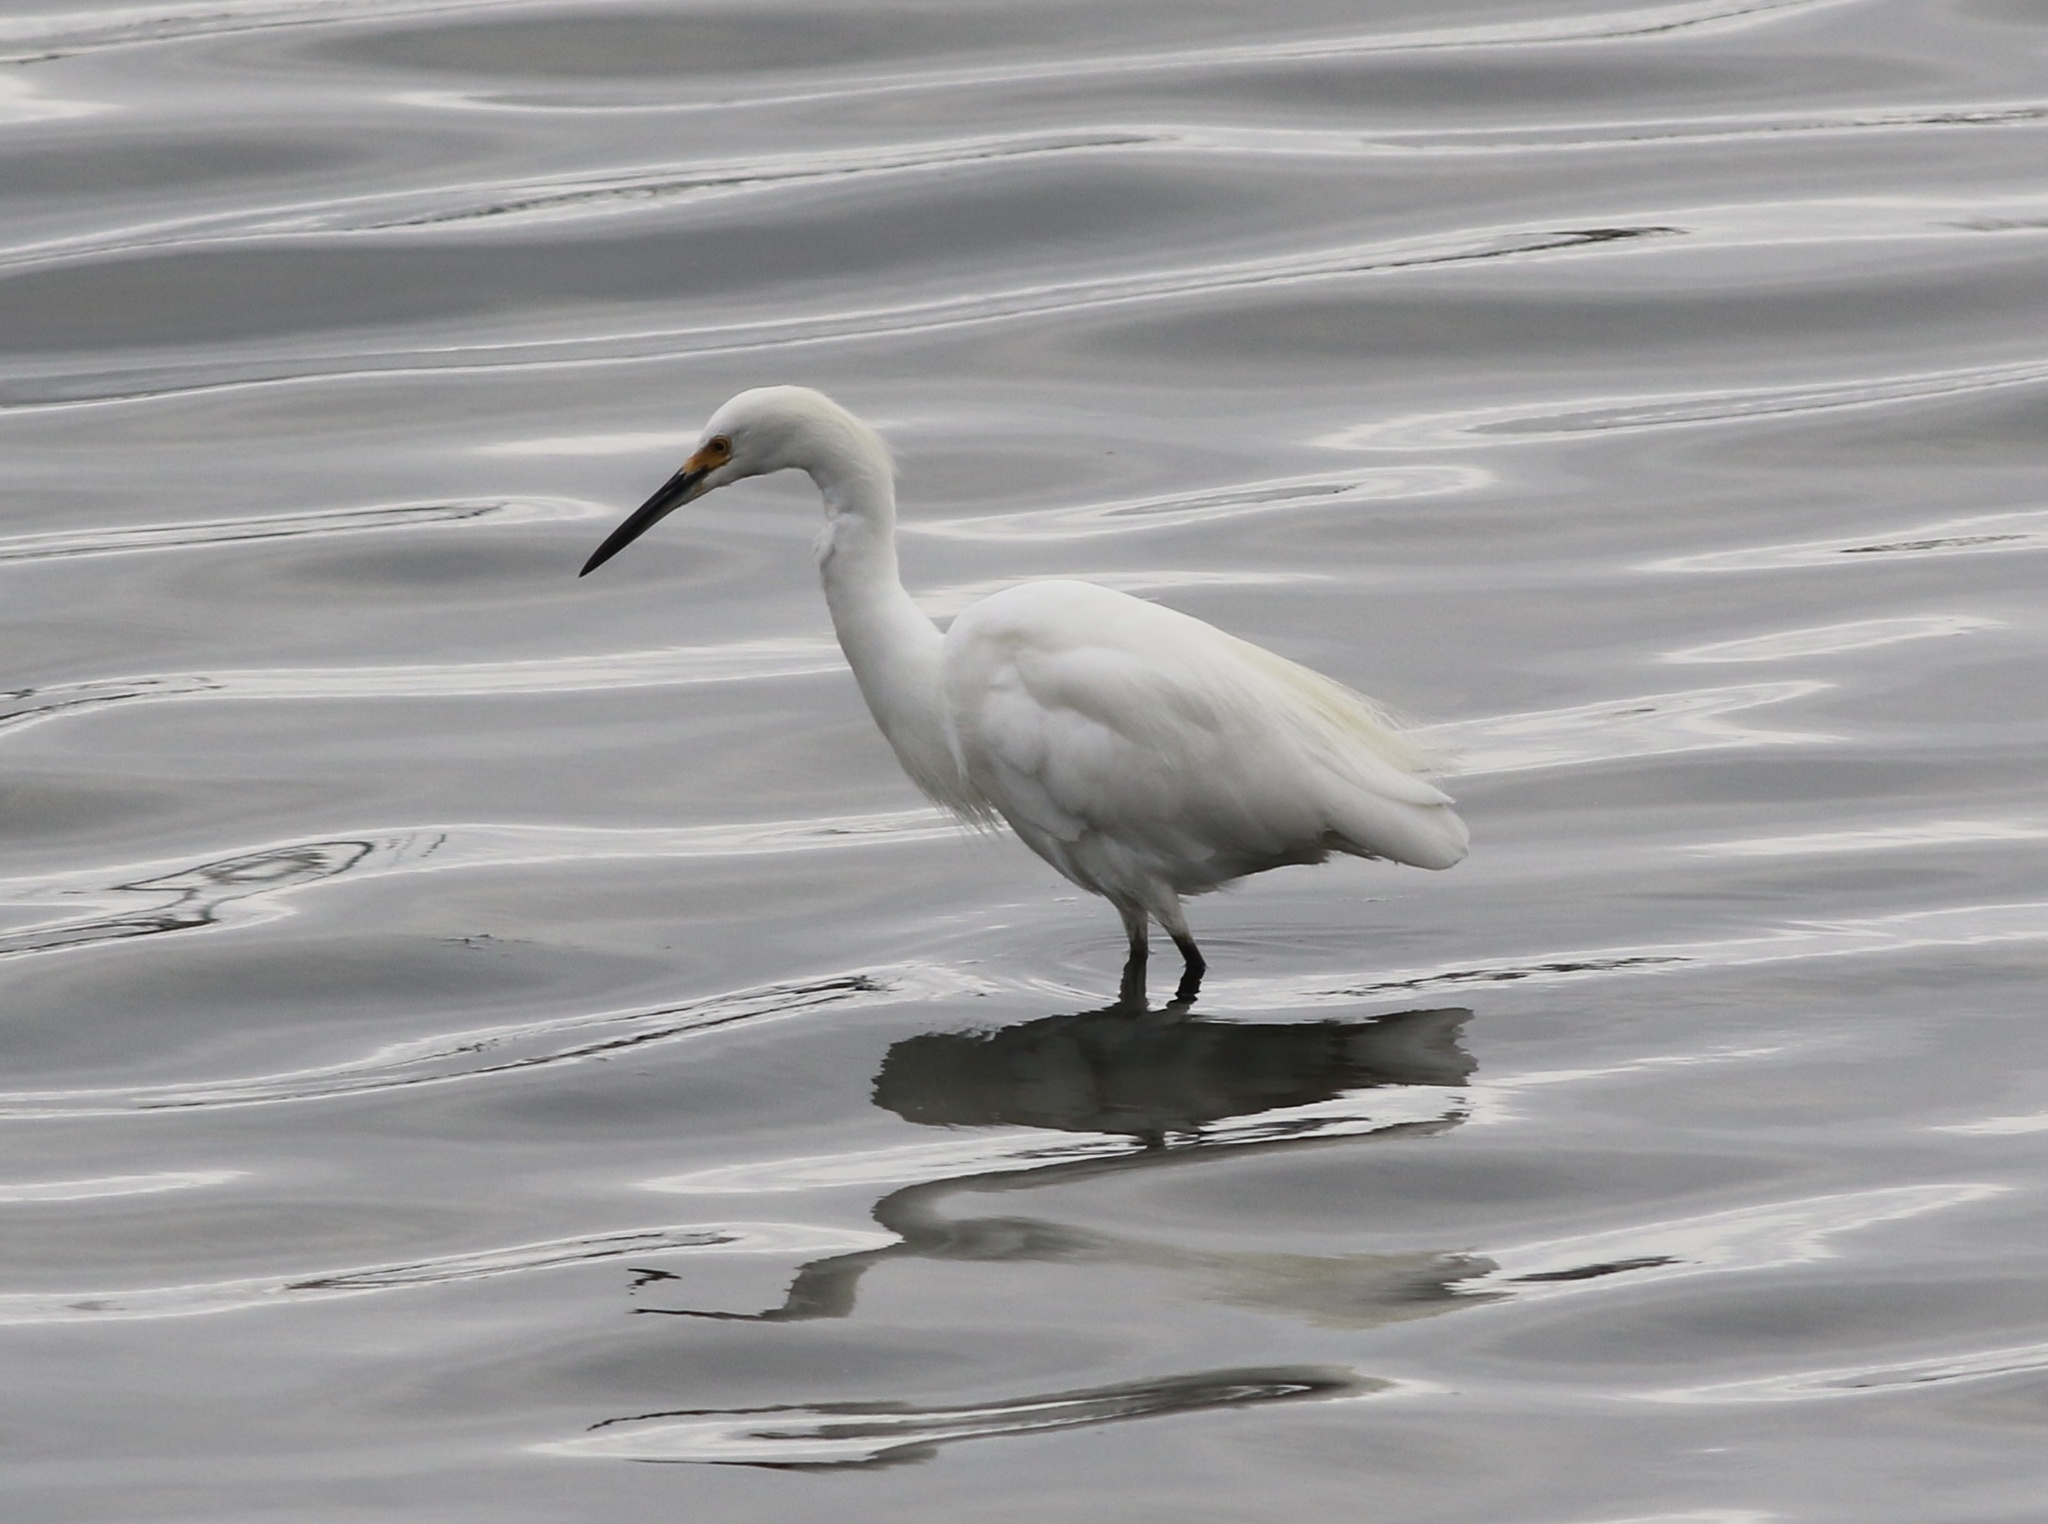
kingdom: Animalia
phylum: Chordata
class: Aves
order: Pelecaniformes
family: Ardeidae
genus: Egretta
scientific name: Egretta thula
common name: Snowy egret
